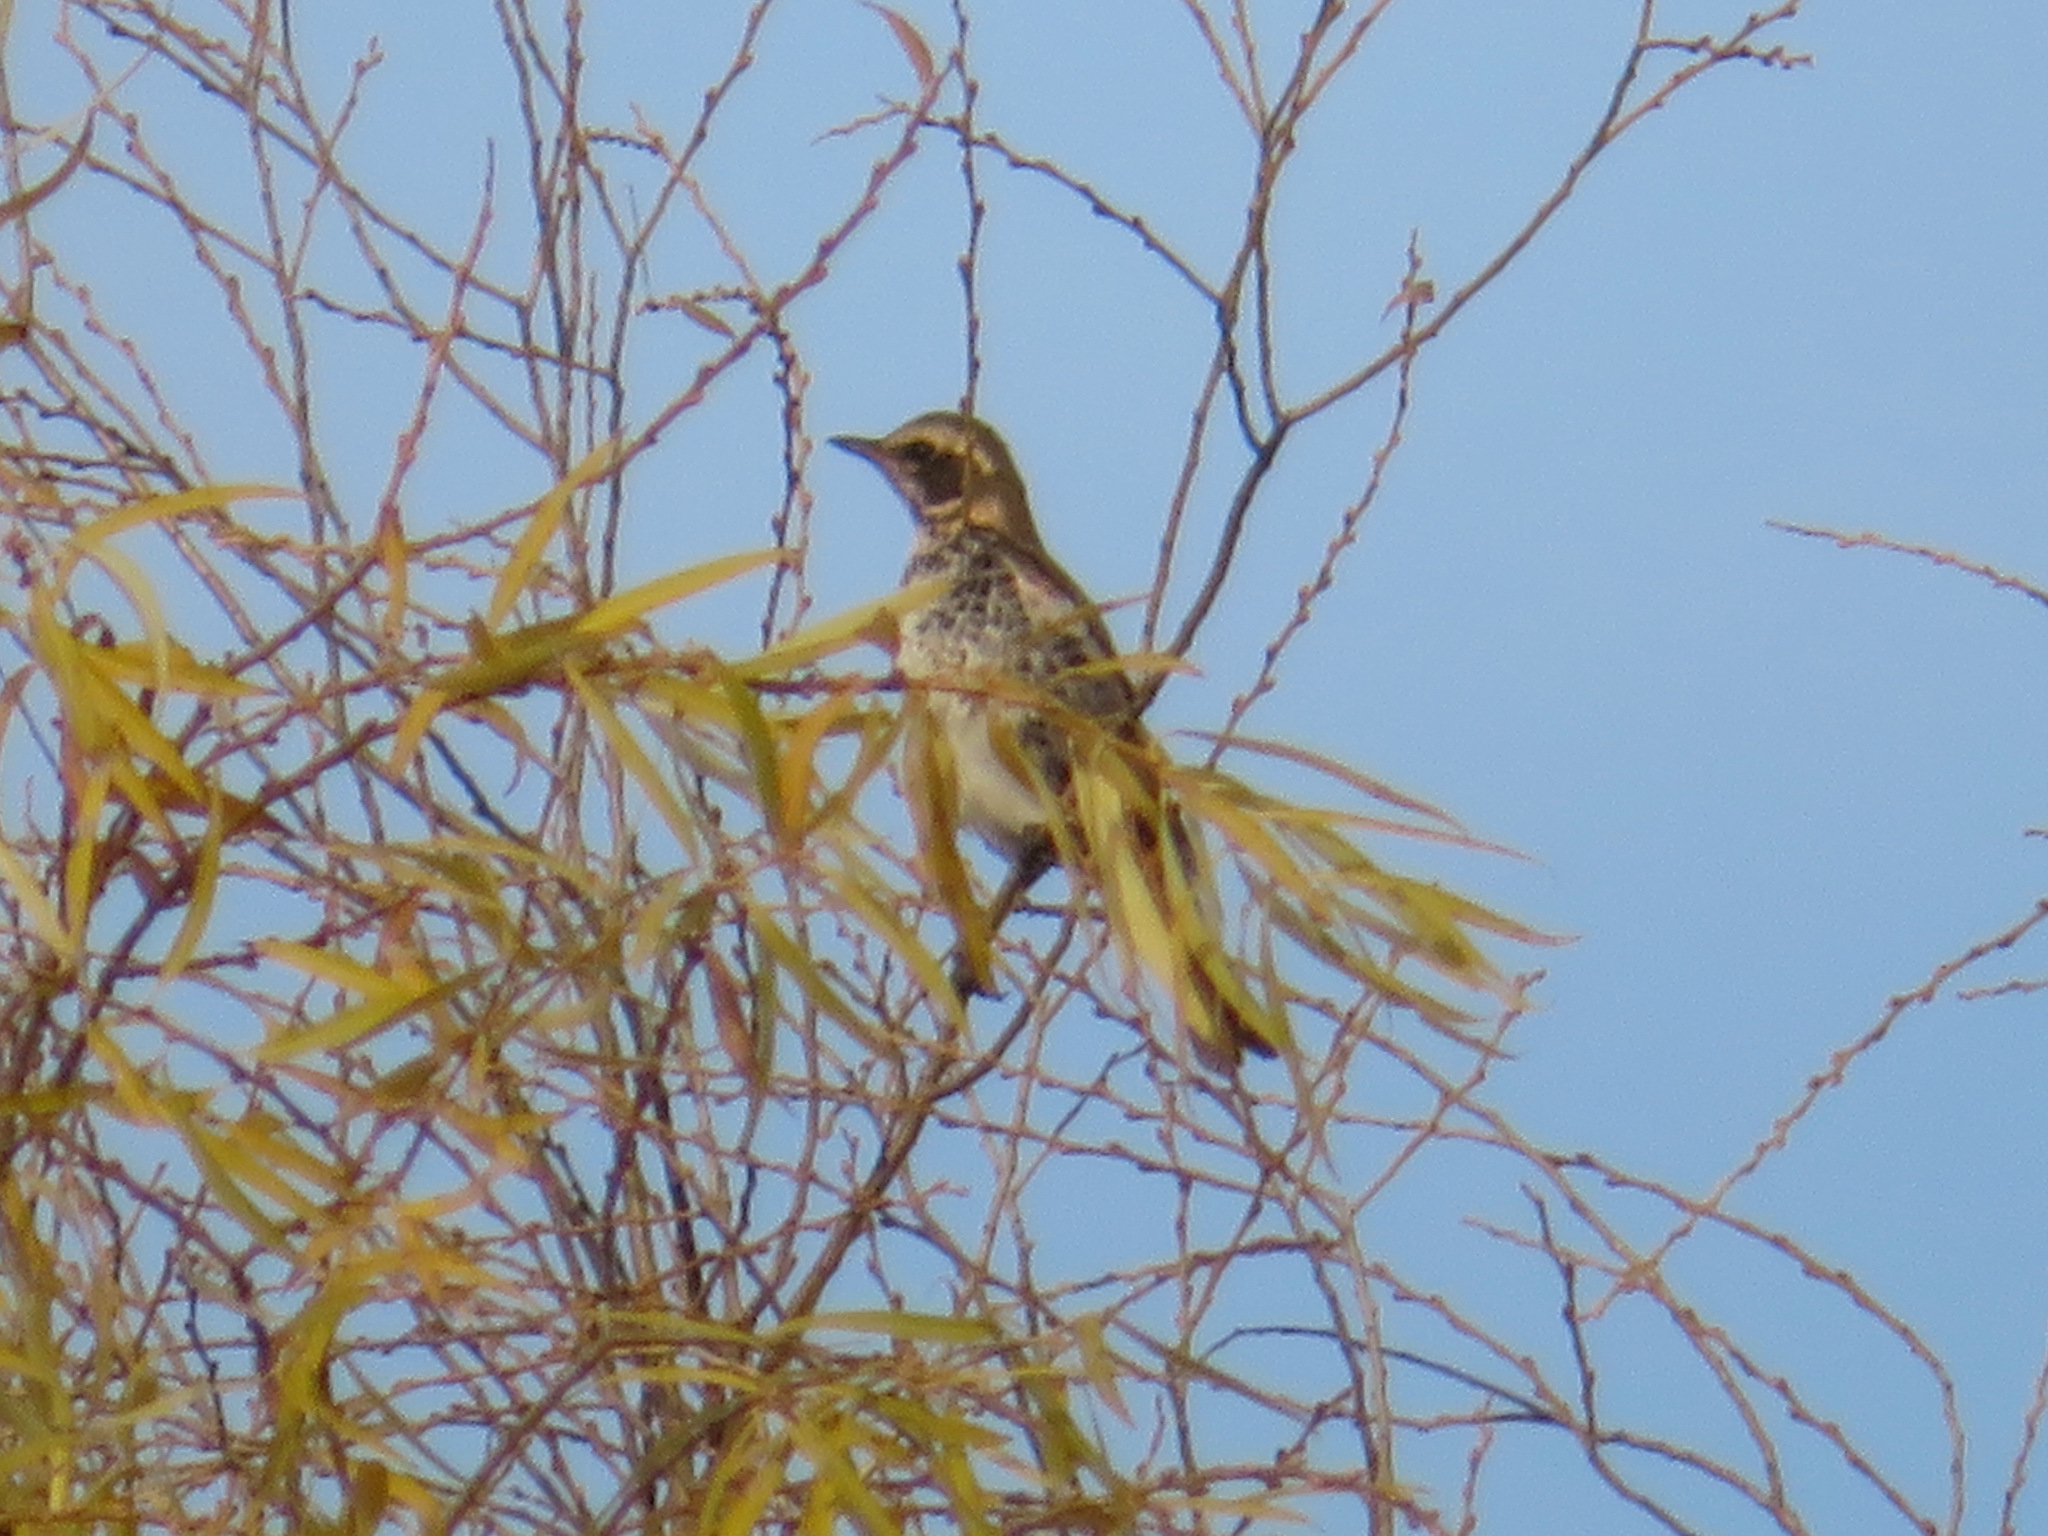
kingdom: Animalia
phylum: Chordata
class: Aves
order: Passeriformes
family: Turdidae
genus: Turdus
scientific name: Turdus eunomus
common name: Dusky thrush
